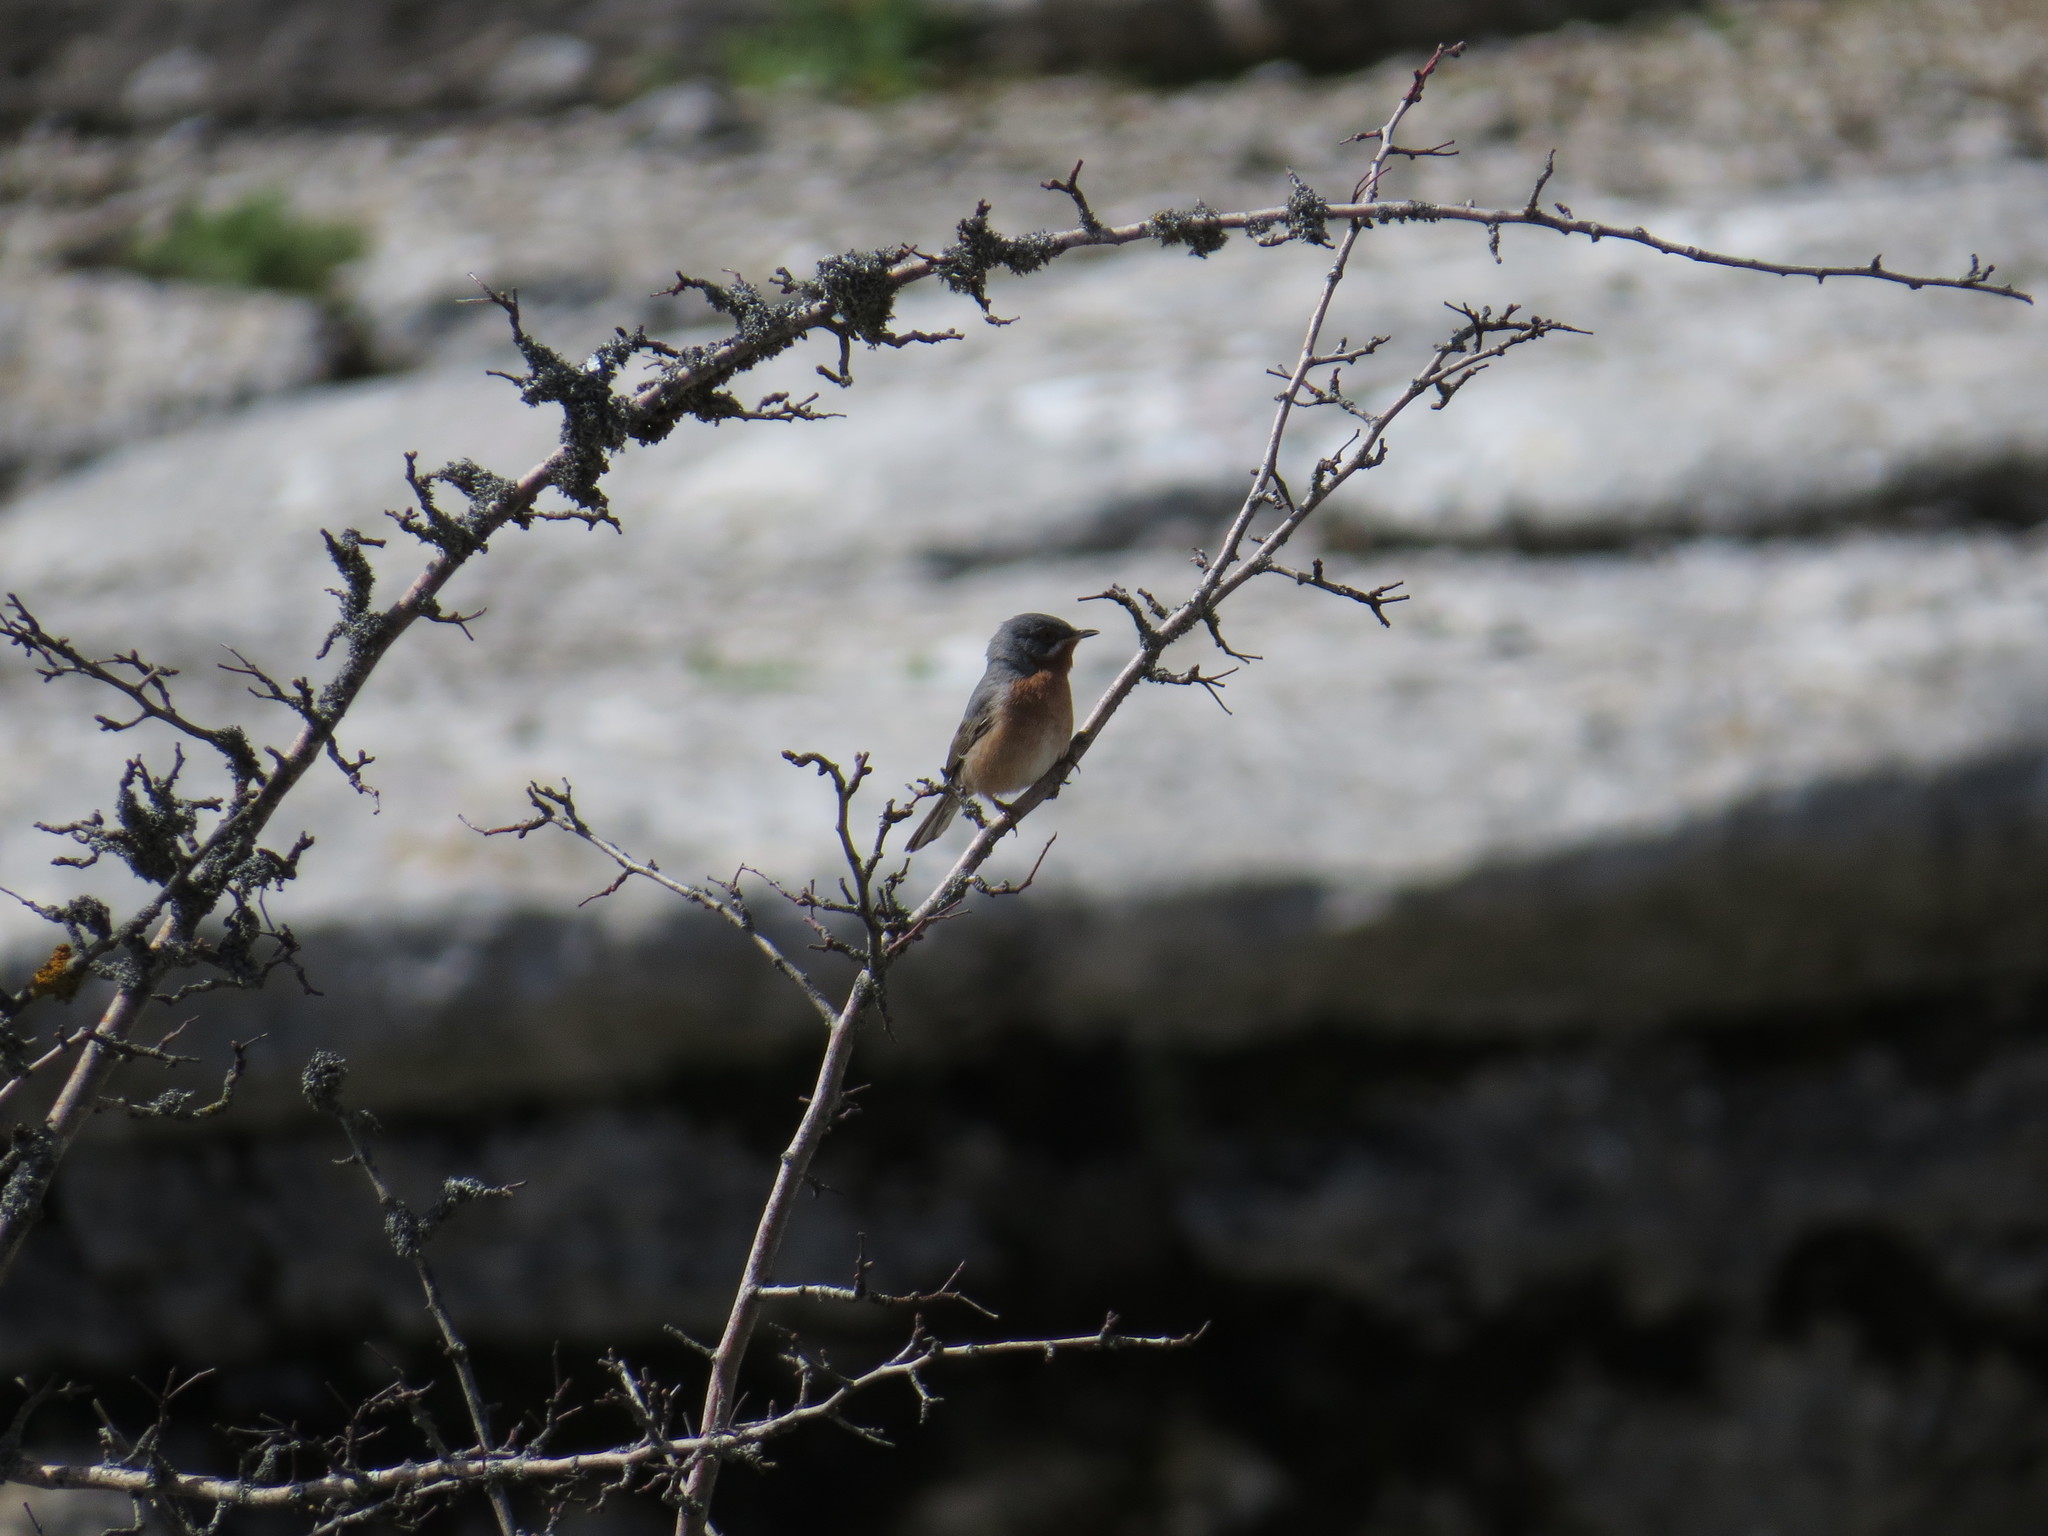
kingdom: Animalia
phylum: Chordata
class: Aves
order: Passeriformes
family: Sylviidae
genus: Curruca
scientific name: Curruca iberiae
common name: Western subalpine warbler
